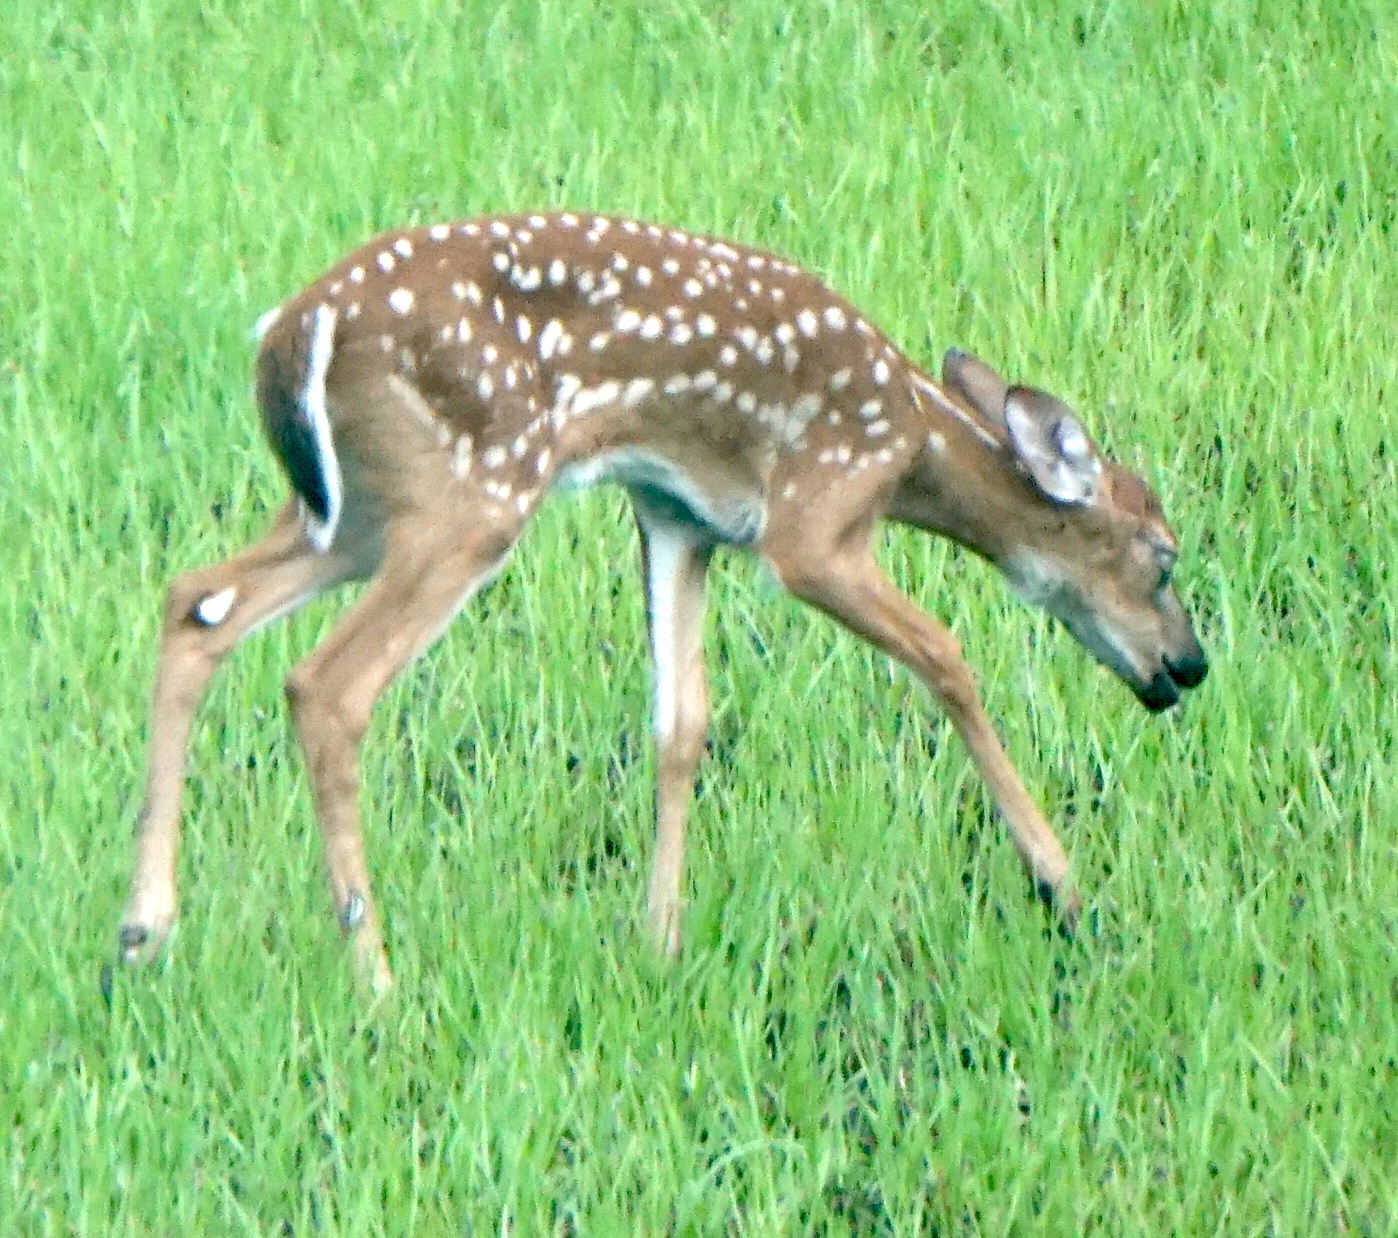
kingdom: Animalia
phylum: Chordata
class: Mammalia
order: Artiodactyla
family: Cervidae
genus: Odocoileus
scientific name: Odocoileus virginianus
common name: White-tailed deer
